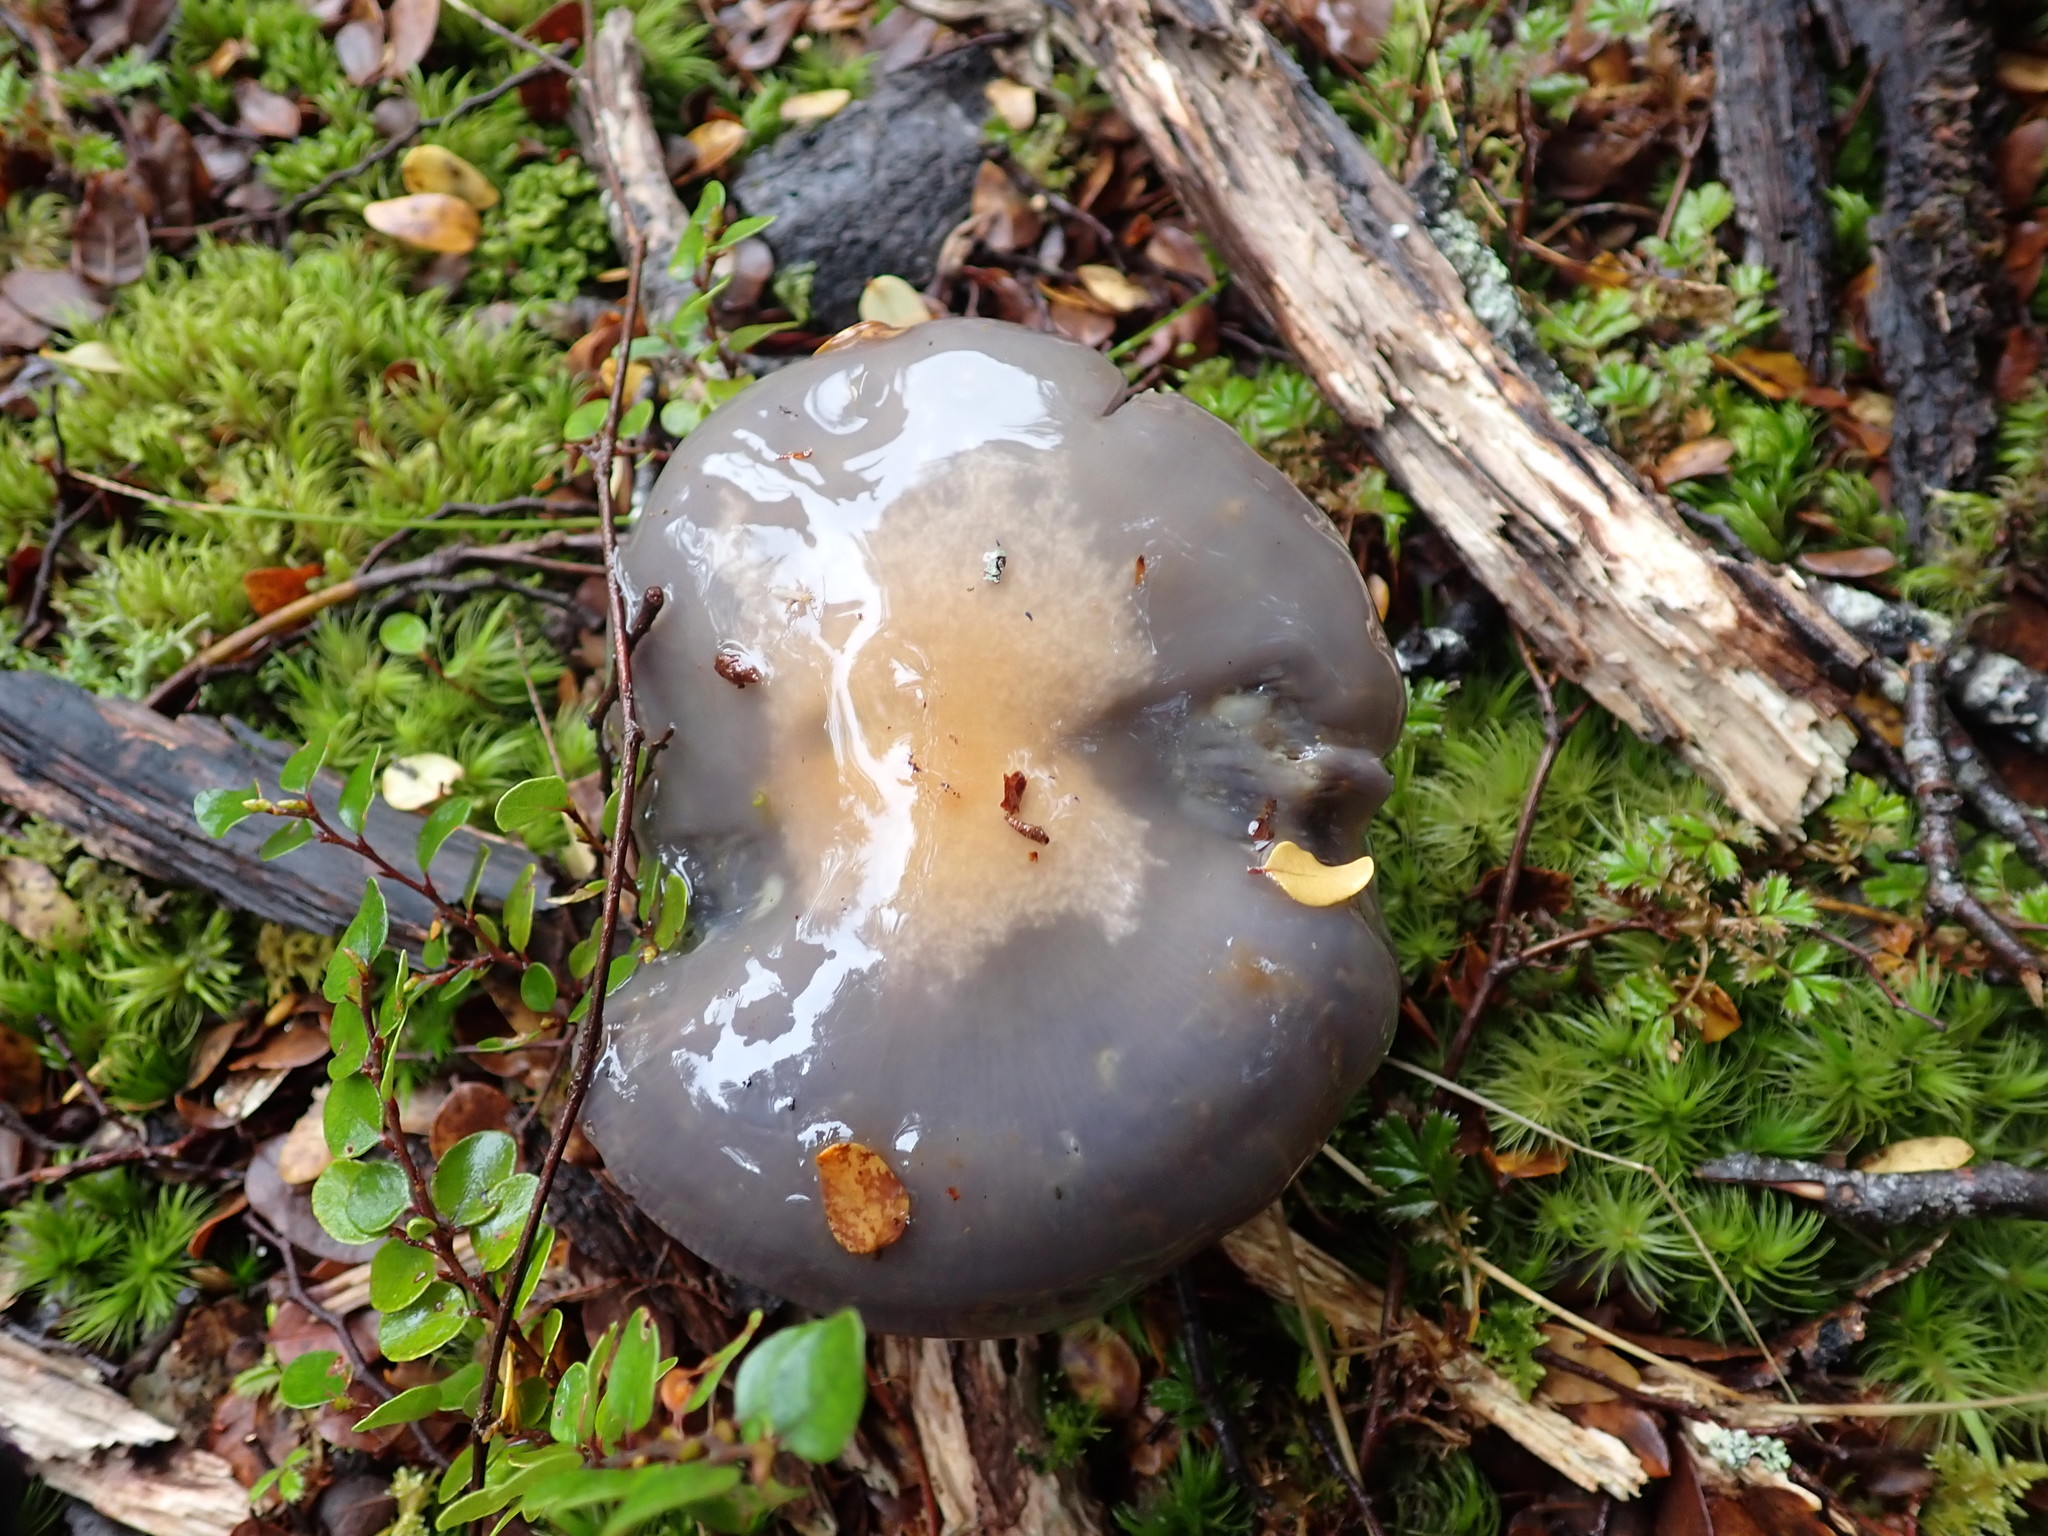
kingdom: Fungi
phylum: Basidiomycota
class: Agaricomycetes
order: Agaricales
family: Cortinariaceae
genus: Cortinarius
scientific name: Cortinarius taylorianus
